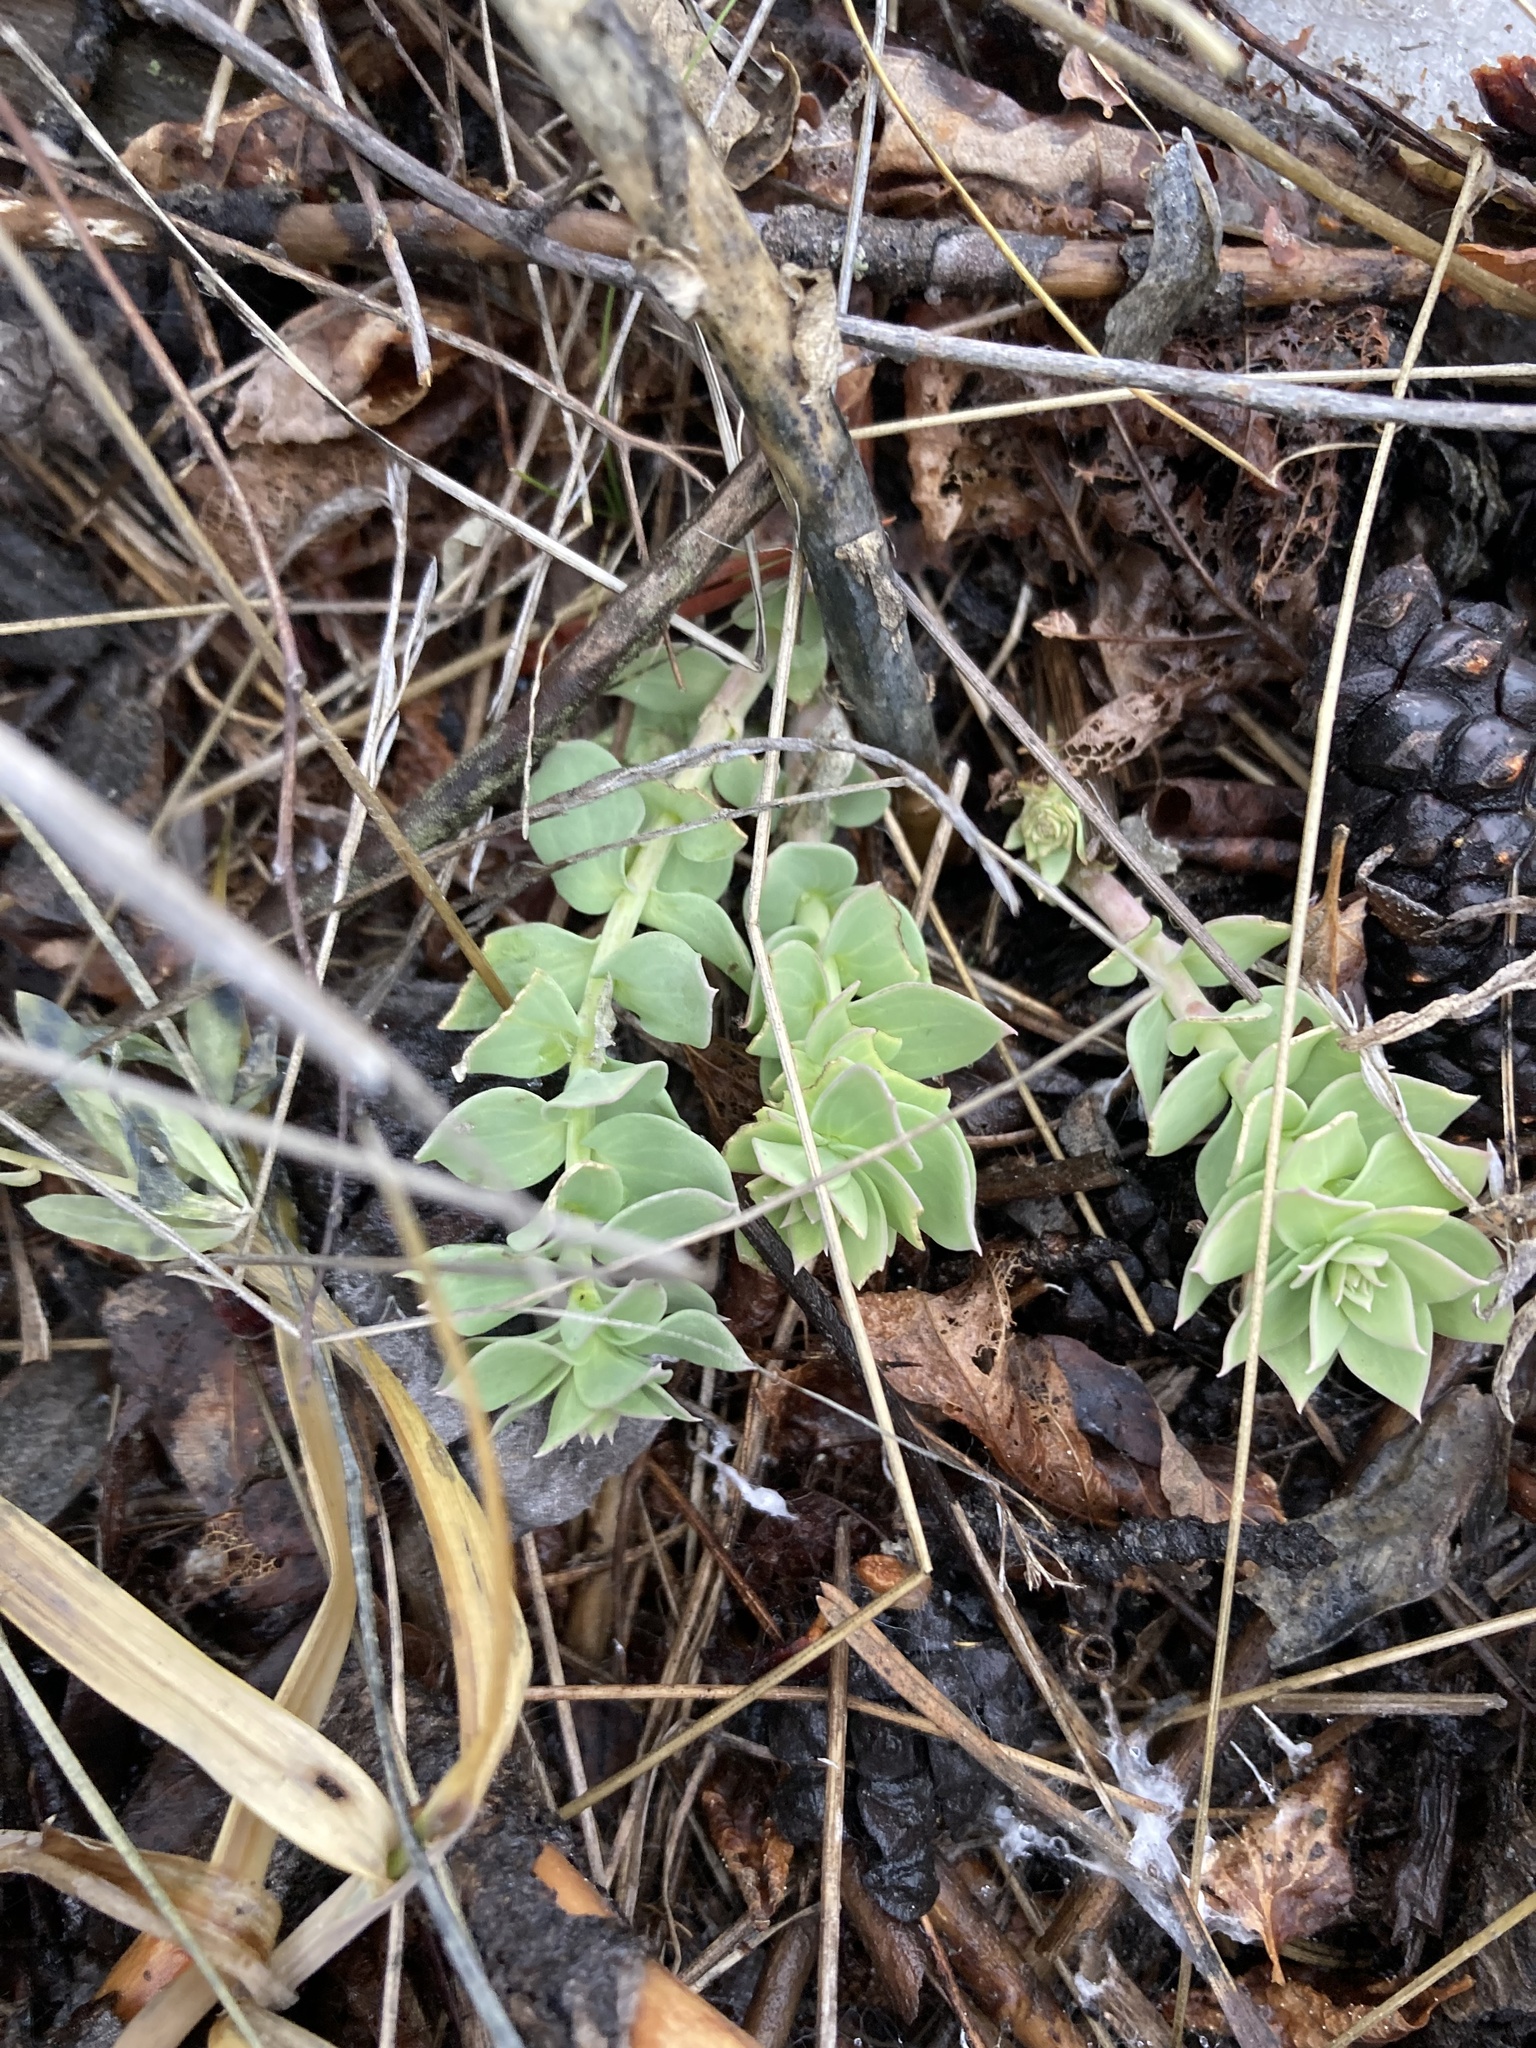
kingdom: Plantae
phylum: Tracheophyta
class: Magnoliopsida
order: Lamiales
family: Plantaginaceae
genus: Linaria
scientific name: Linaria dalmatica
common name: Dalmatian toadflax
